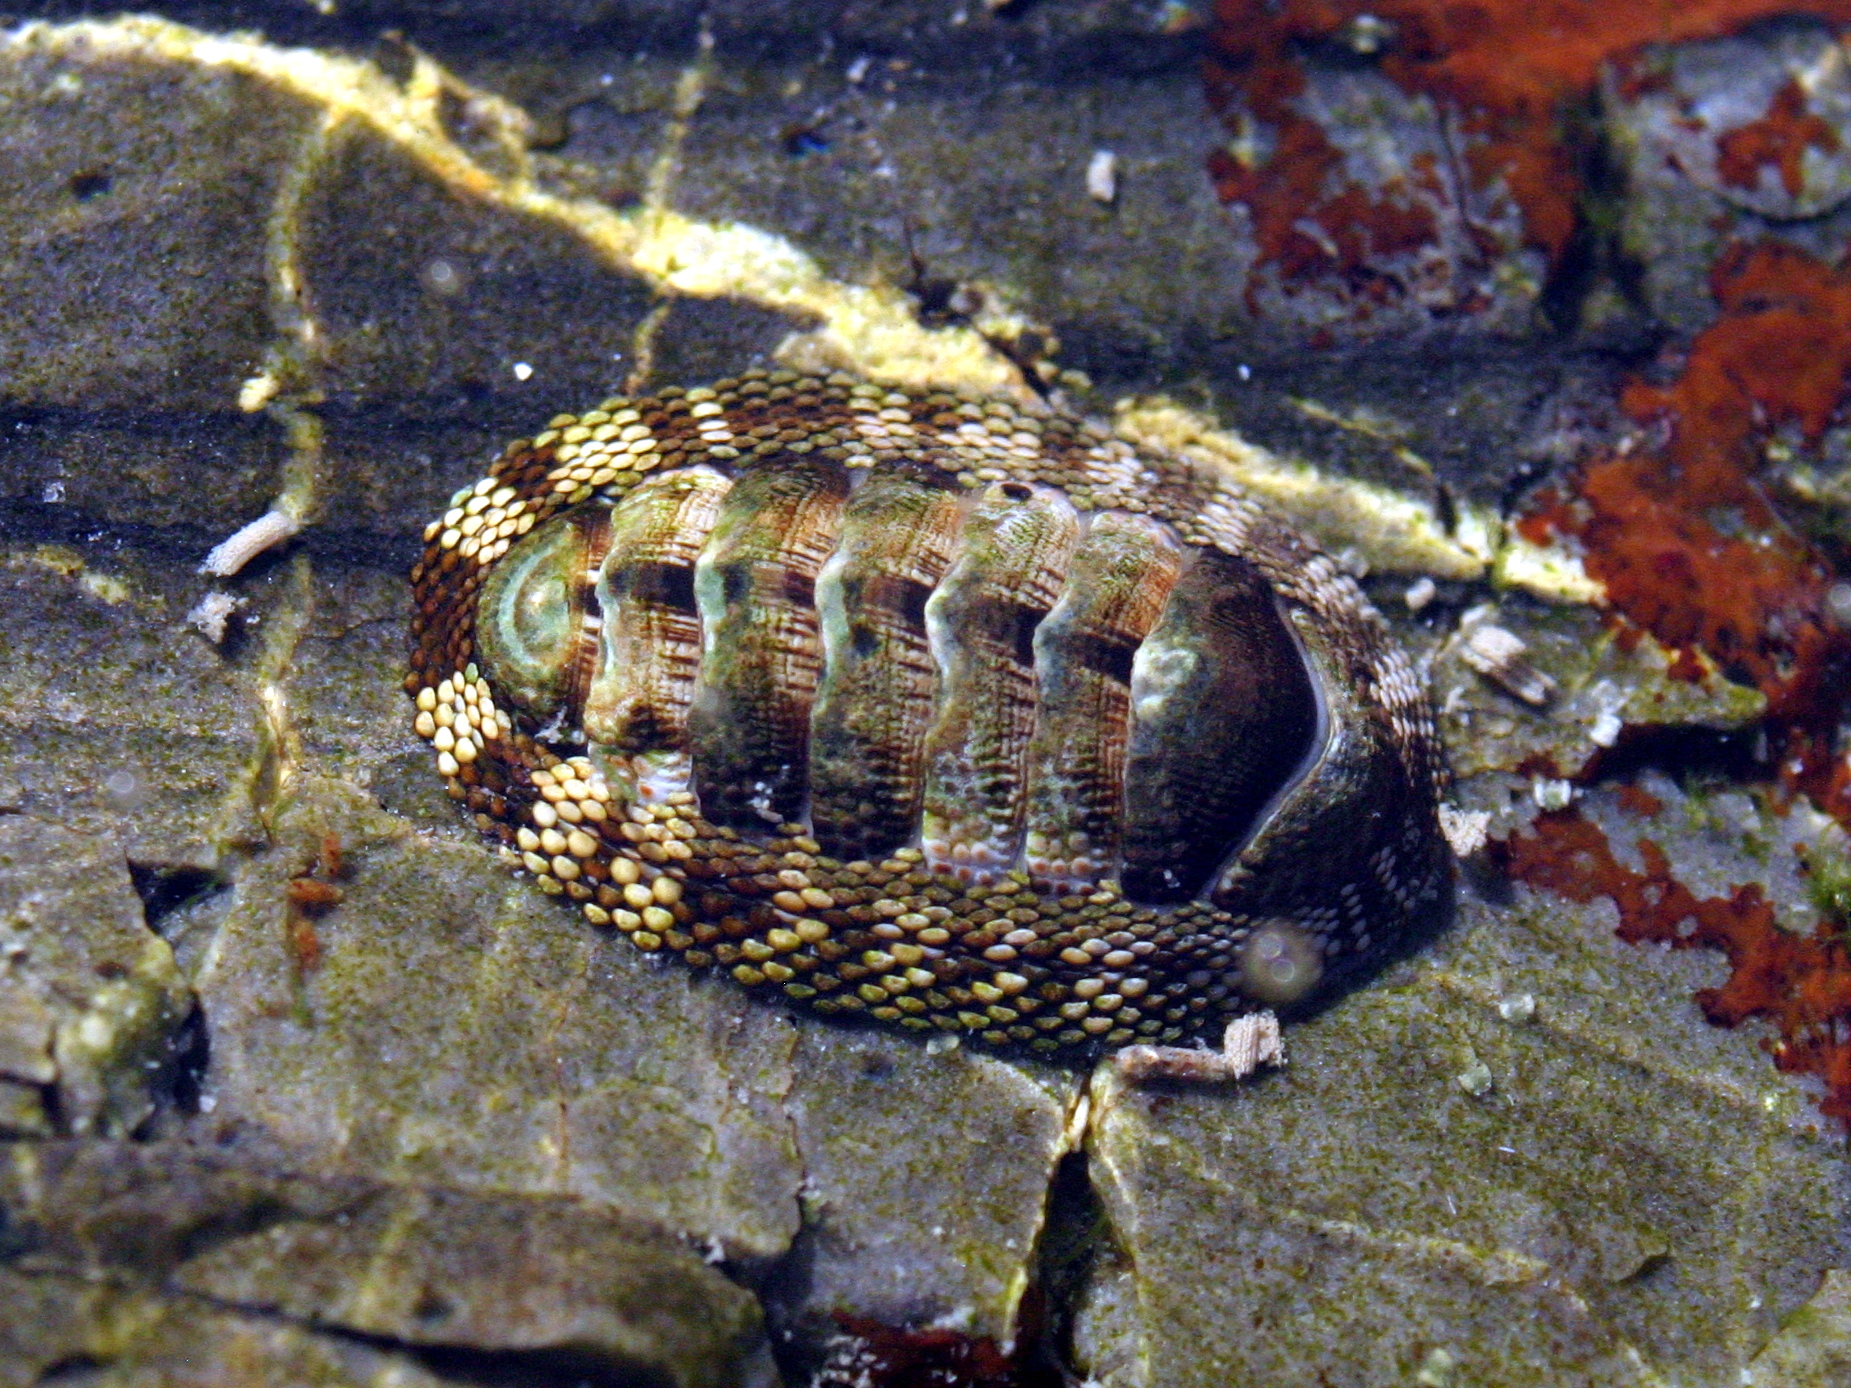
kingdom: Animalia
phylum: Mollusca
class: Polyplacophora
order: Chitonida
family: Chitonidae
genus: Sypharochiton
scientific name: Sypharochiton pelliserpentis
